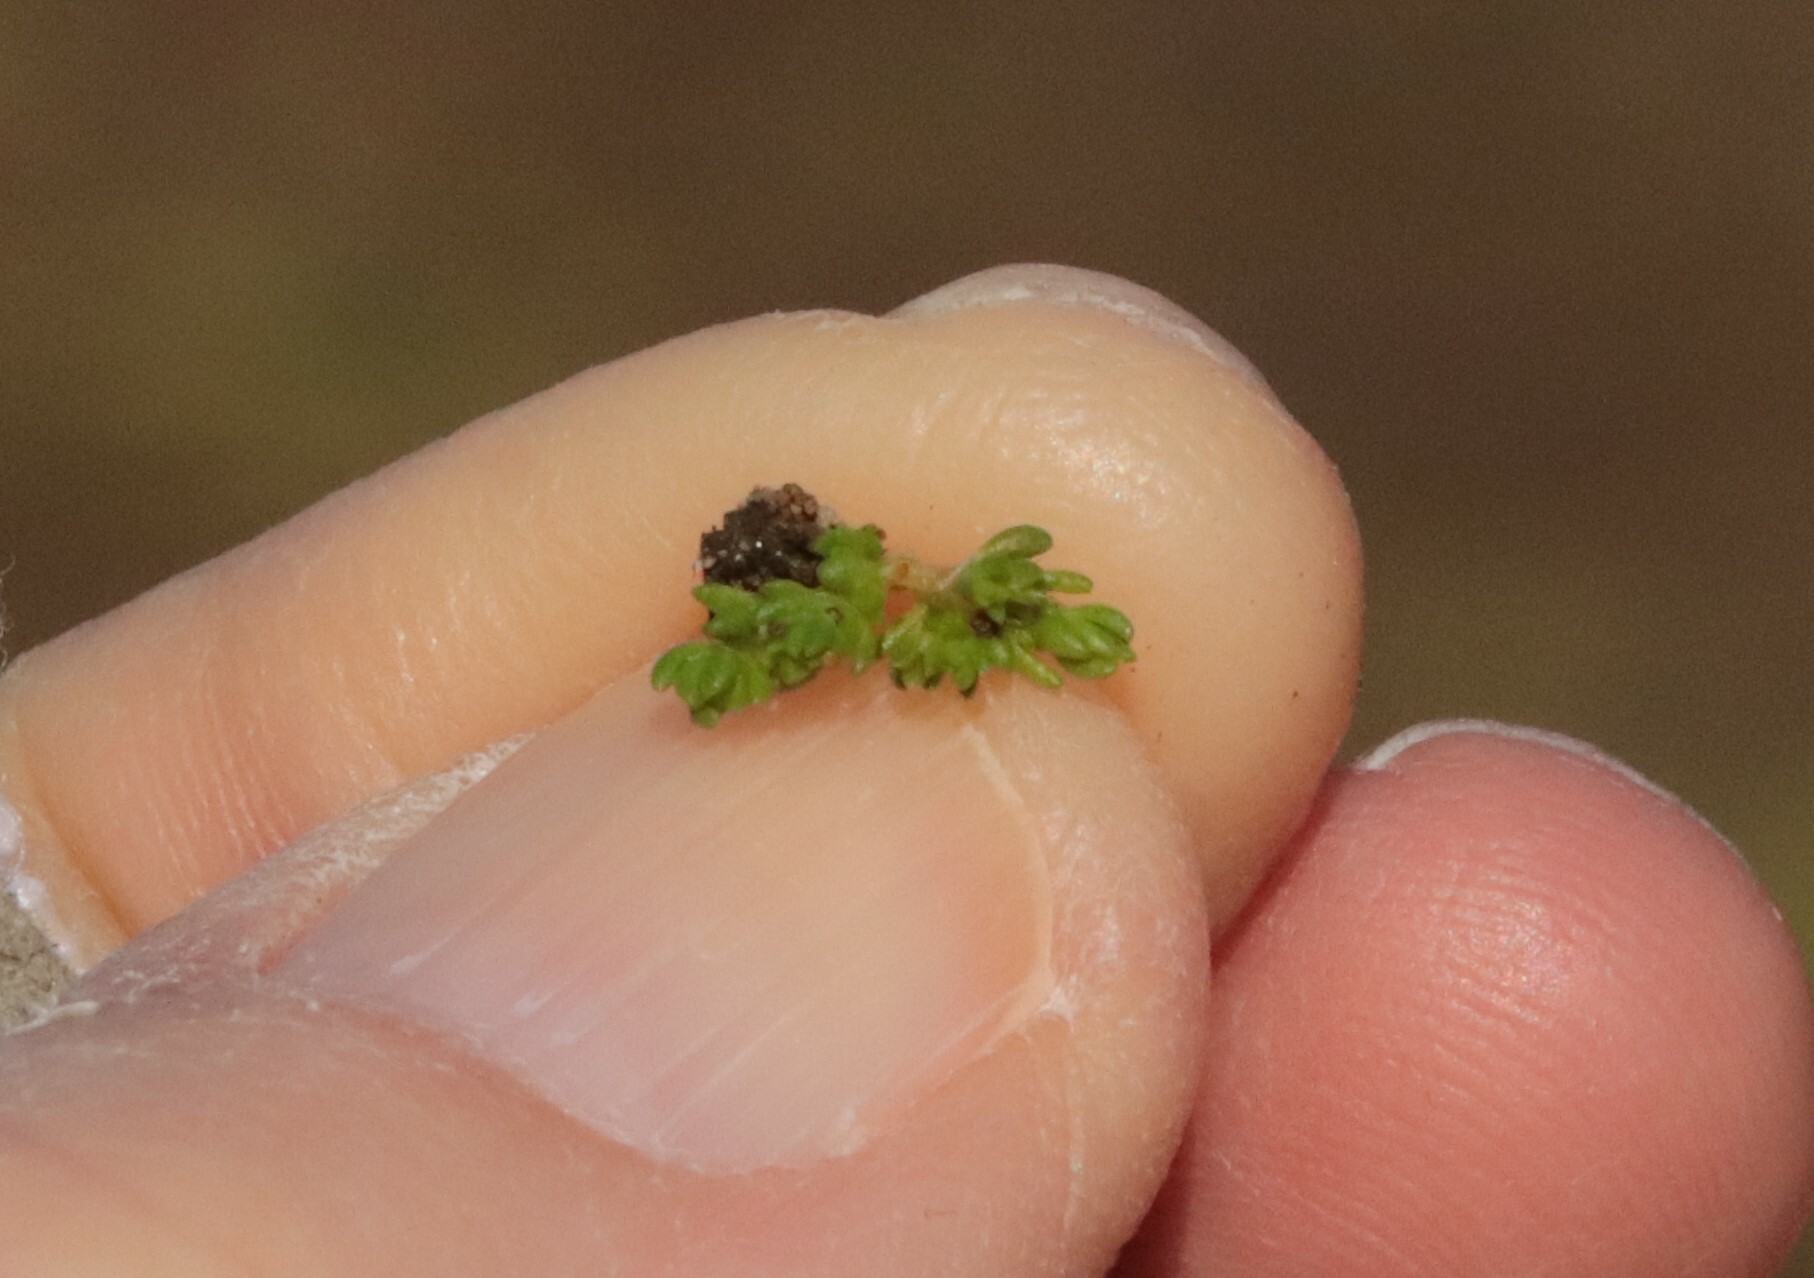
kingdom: Plantae
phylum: Tracheophyta
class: Magnoliopsida
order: Saxifragales
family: Crassulaceae
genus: Crassula
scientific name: Crassula connata
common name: Erect pygmyweed
